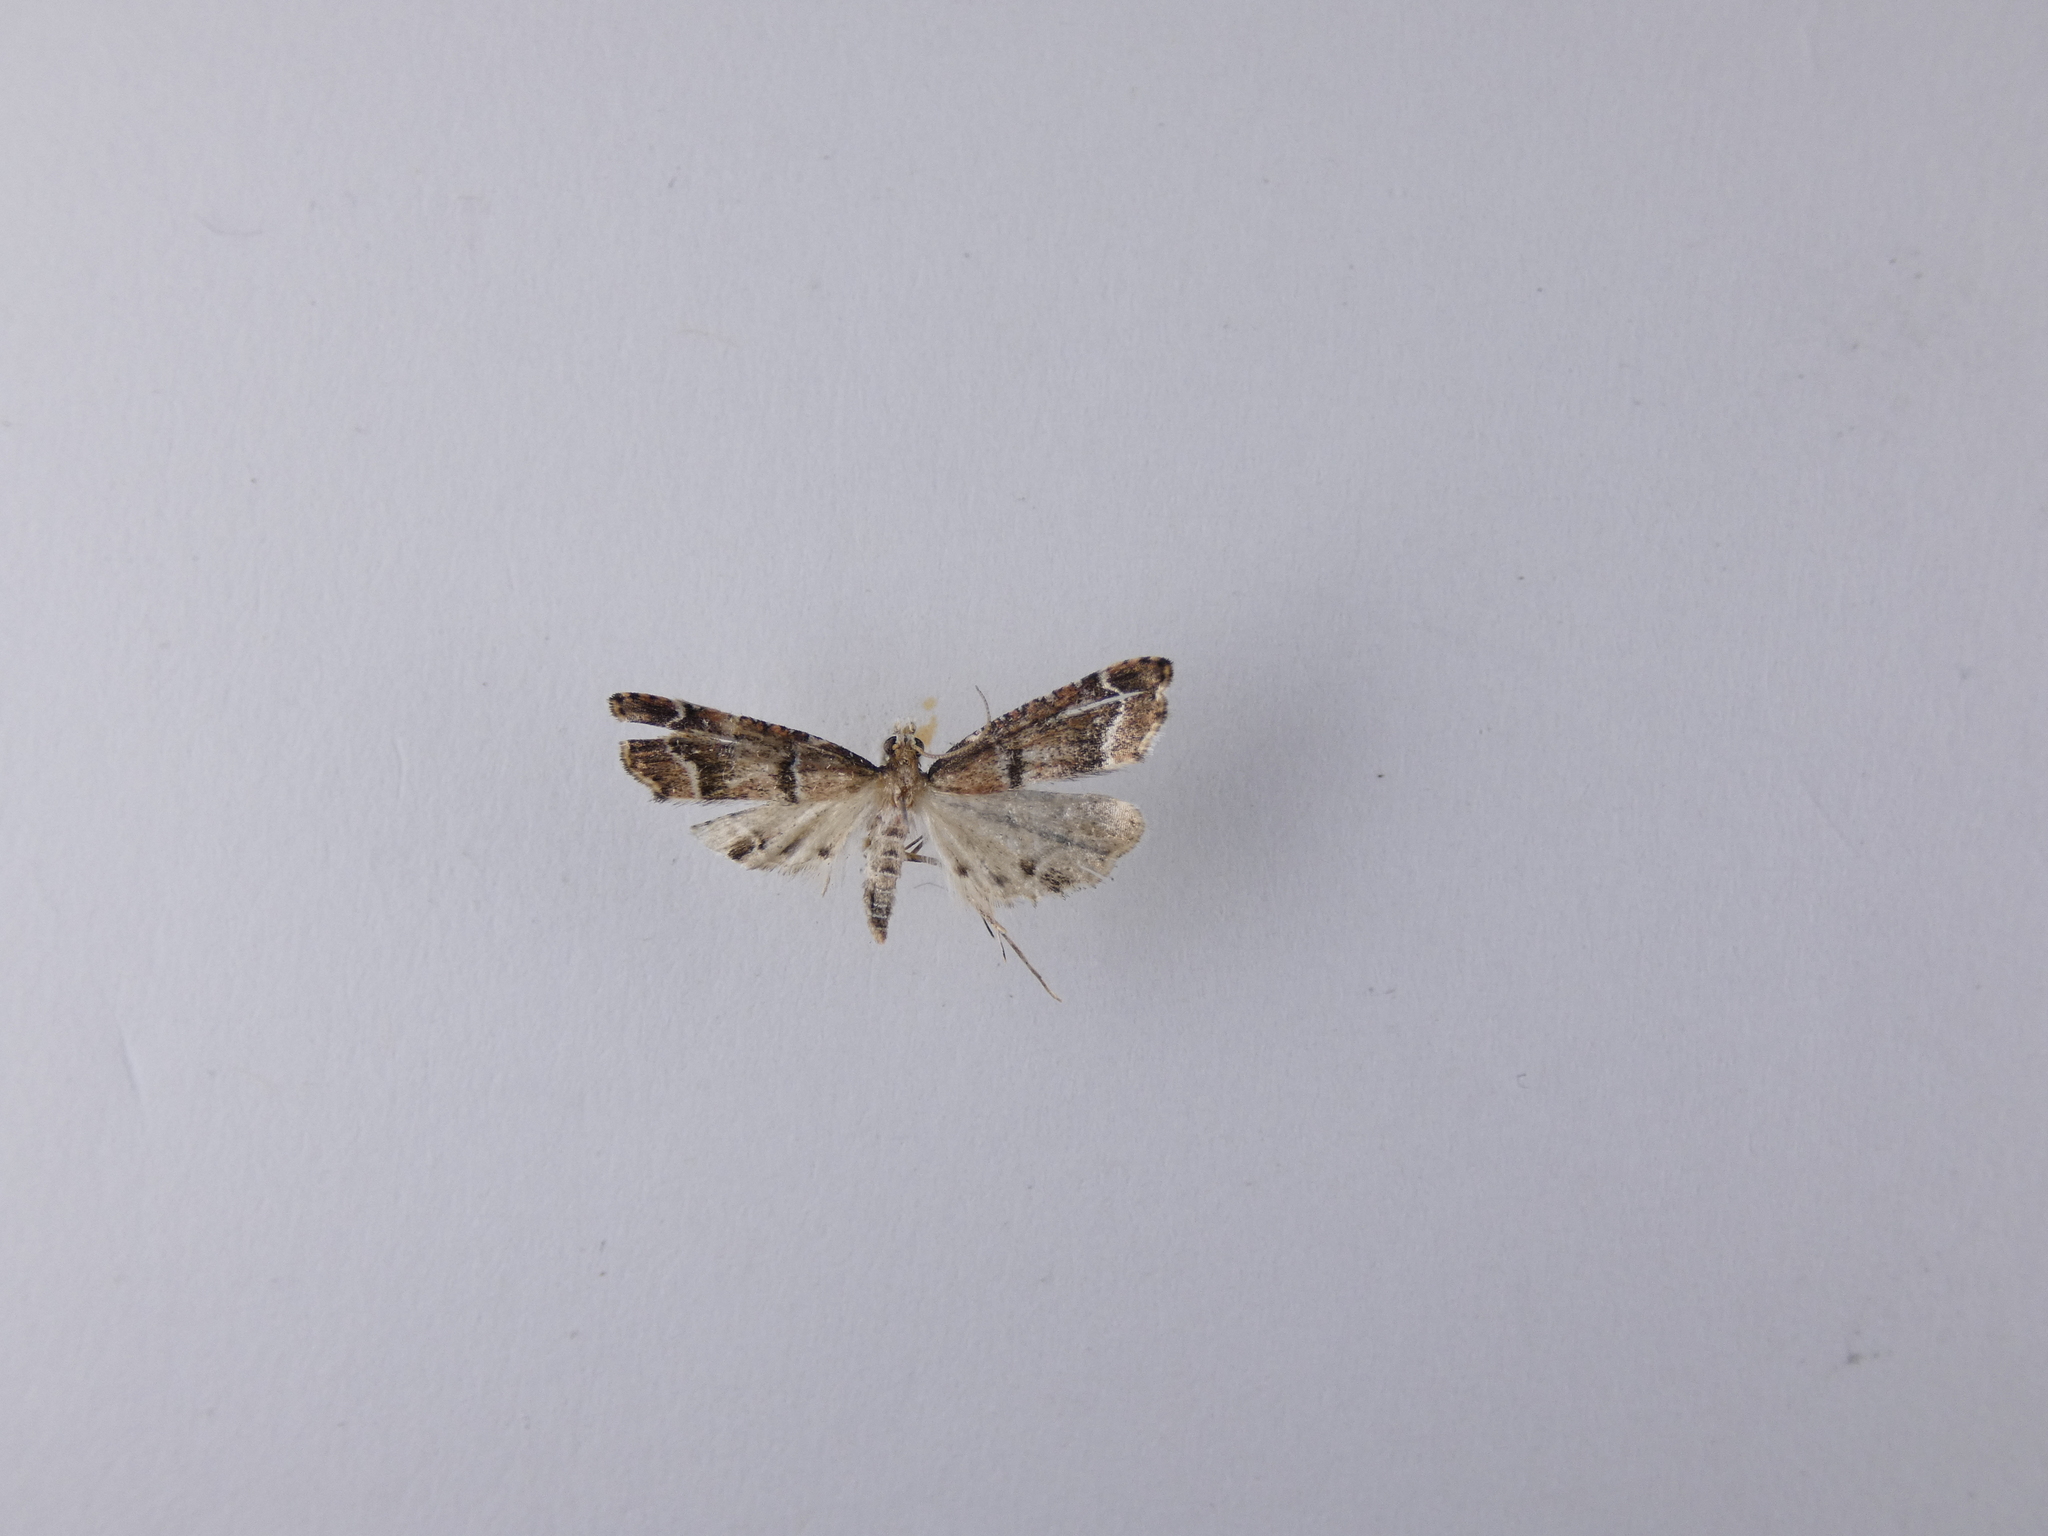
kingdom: Animalia
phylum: Arthropoda
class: Insecta
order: Lepidoptera
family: Crambidae
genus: Diplopseustis
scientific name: Diplopseustis perieresalis
